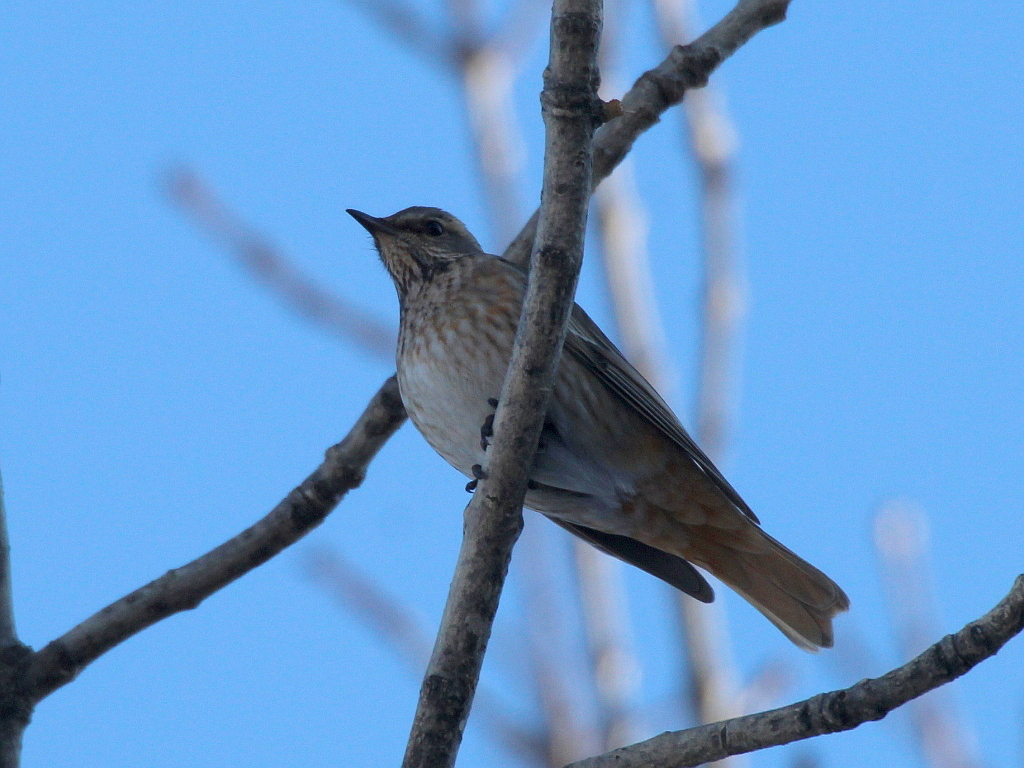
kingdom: Animalia
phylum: Chordata
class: Aves
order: Passeriformes
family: Turdidae
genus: Turdus
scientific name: Turdus naumanni
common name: Naumann's thrush
